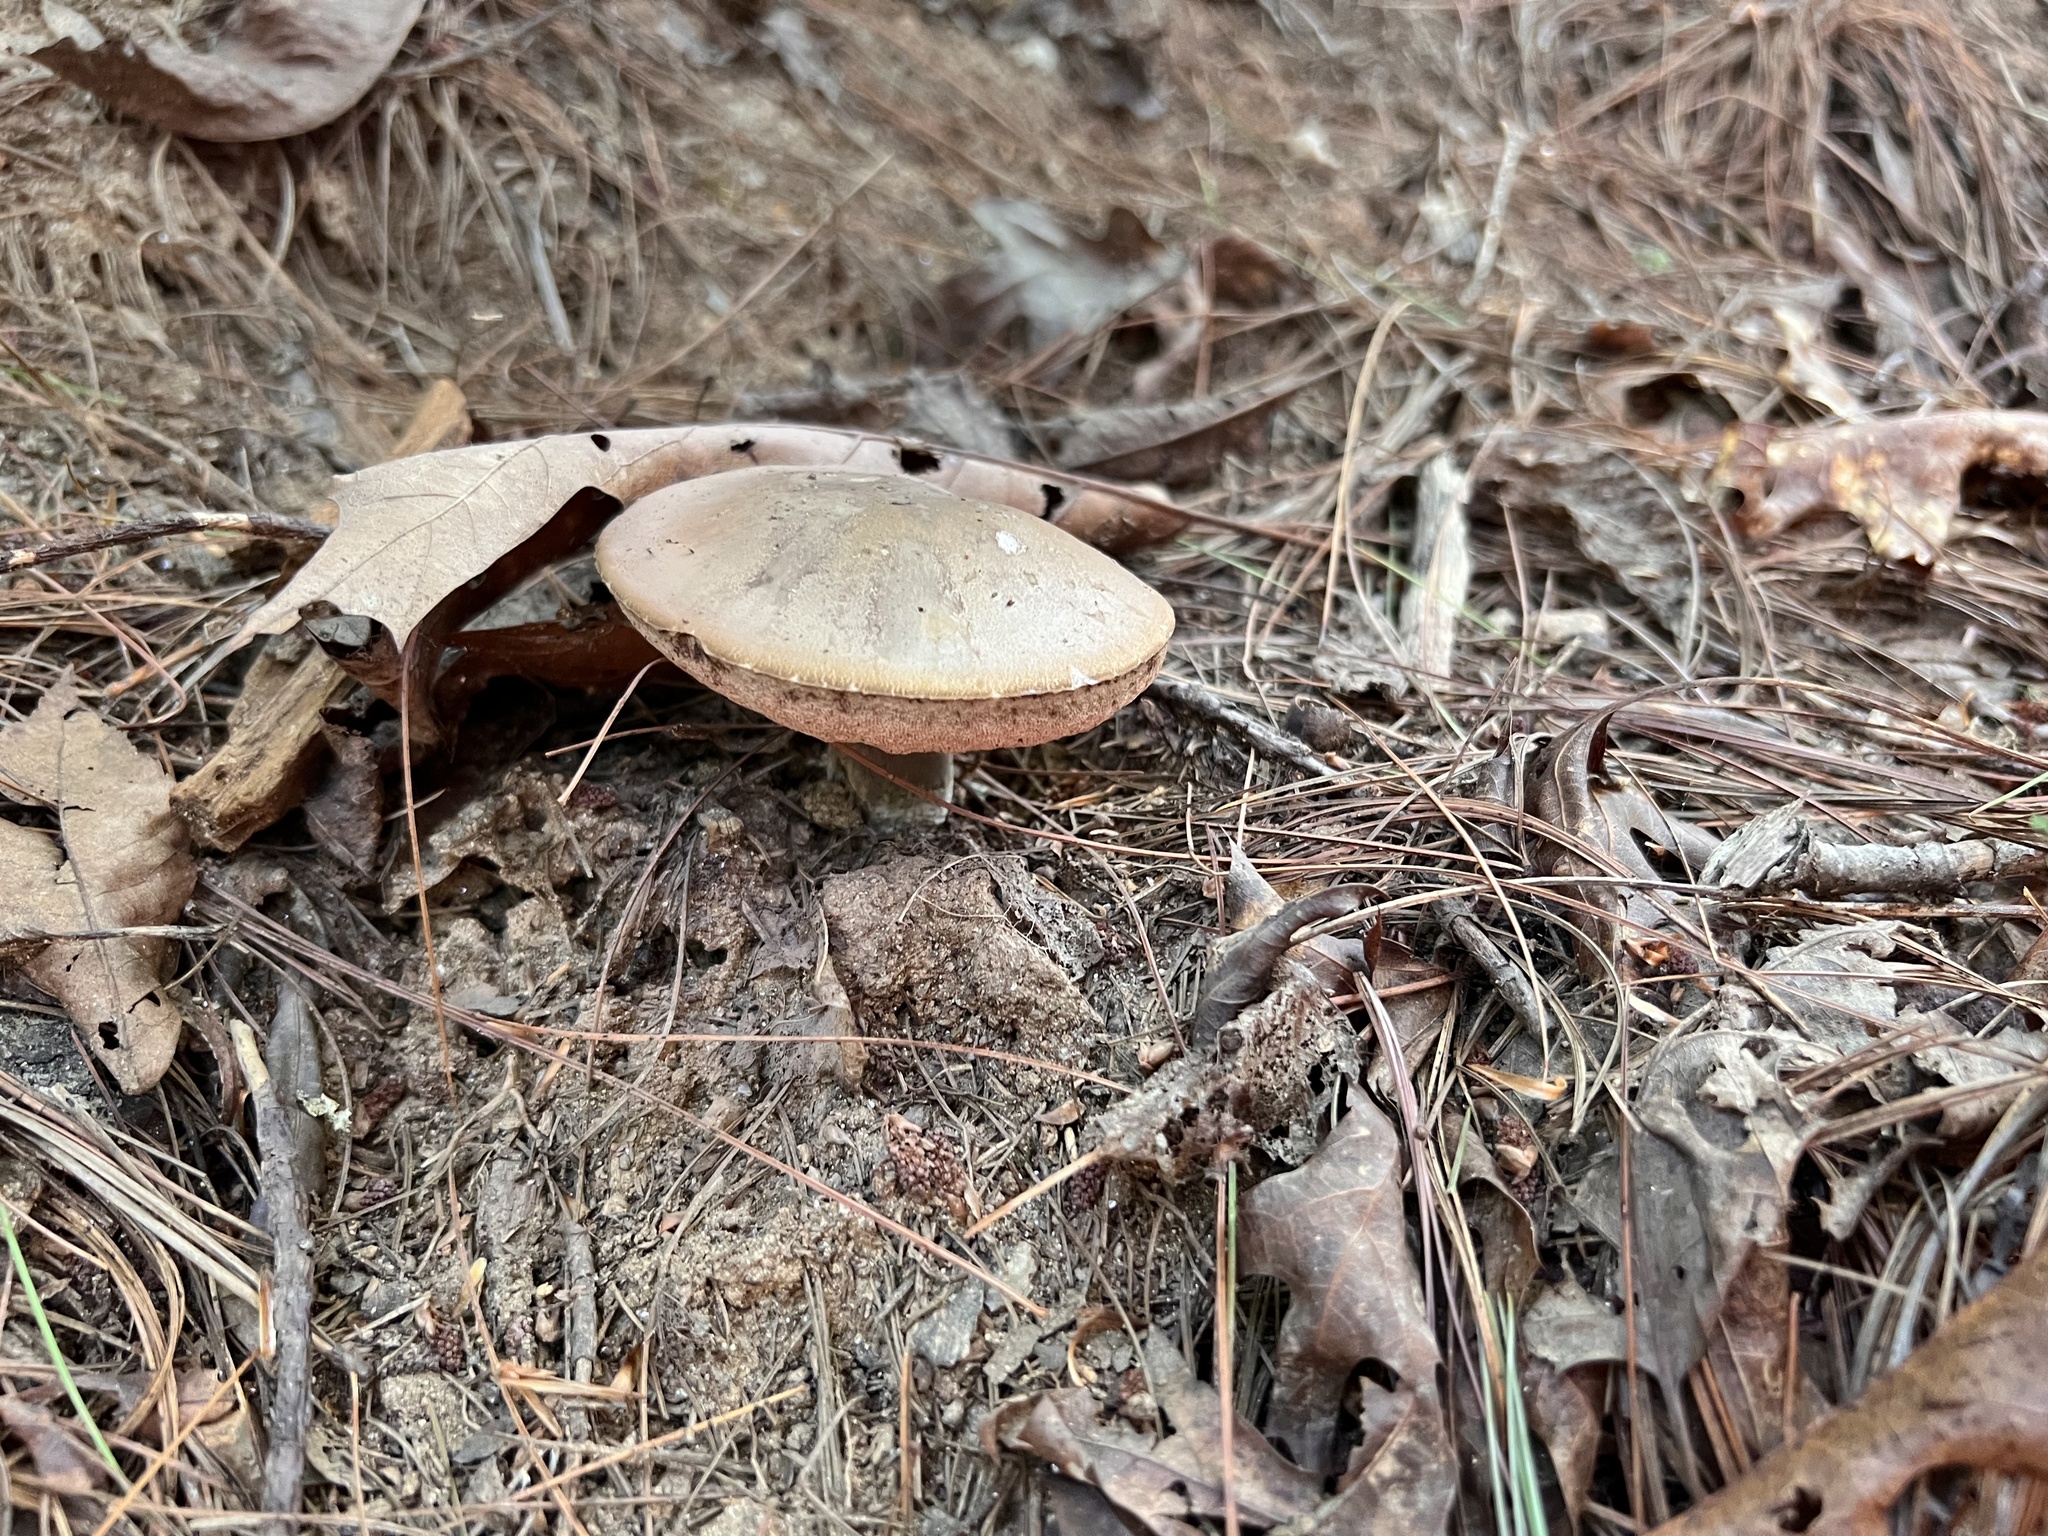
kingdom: Fungi
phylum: Basidiomycota
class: Agaricomycetes
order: Boletales
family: Boletaceae
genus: Tylopilus
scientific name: Tylopilus plumbeoviolaceus
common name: Violet gray bolete
